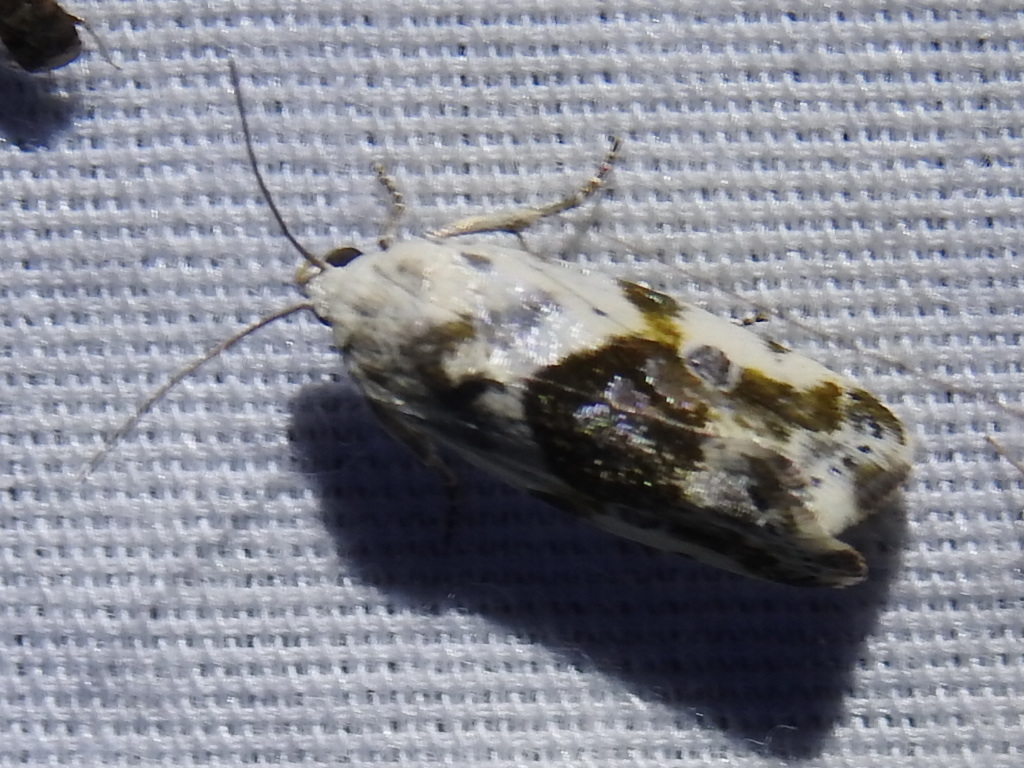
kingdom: Animalia
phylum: Arthropoda
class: Insecta
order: Lepidoptera
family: Noctuidae
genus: Acontia
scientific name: Acontia candefacta
